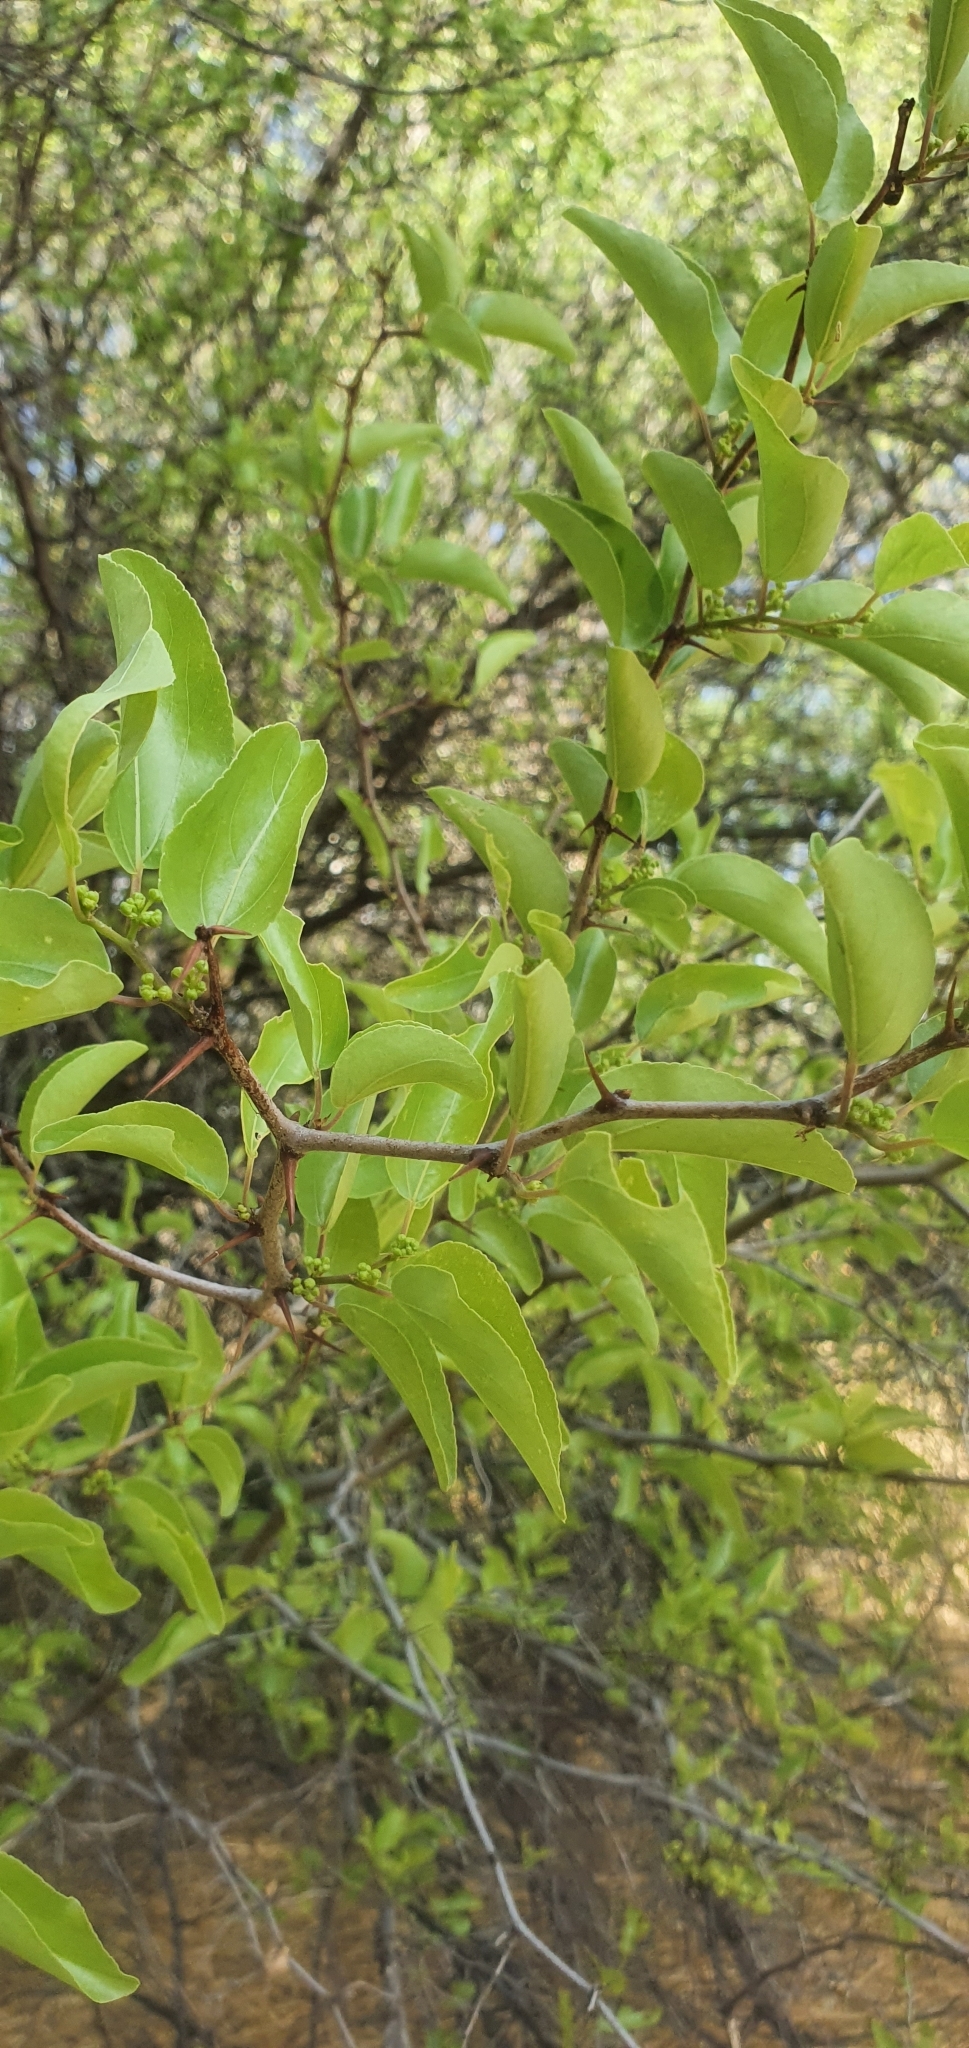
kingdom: Plantae
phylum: Tracheophyta
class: Magnoliopsida
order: Rosales
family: Rhamnaceae
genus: Ziziphus
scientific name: Ziziphus mucronata
